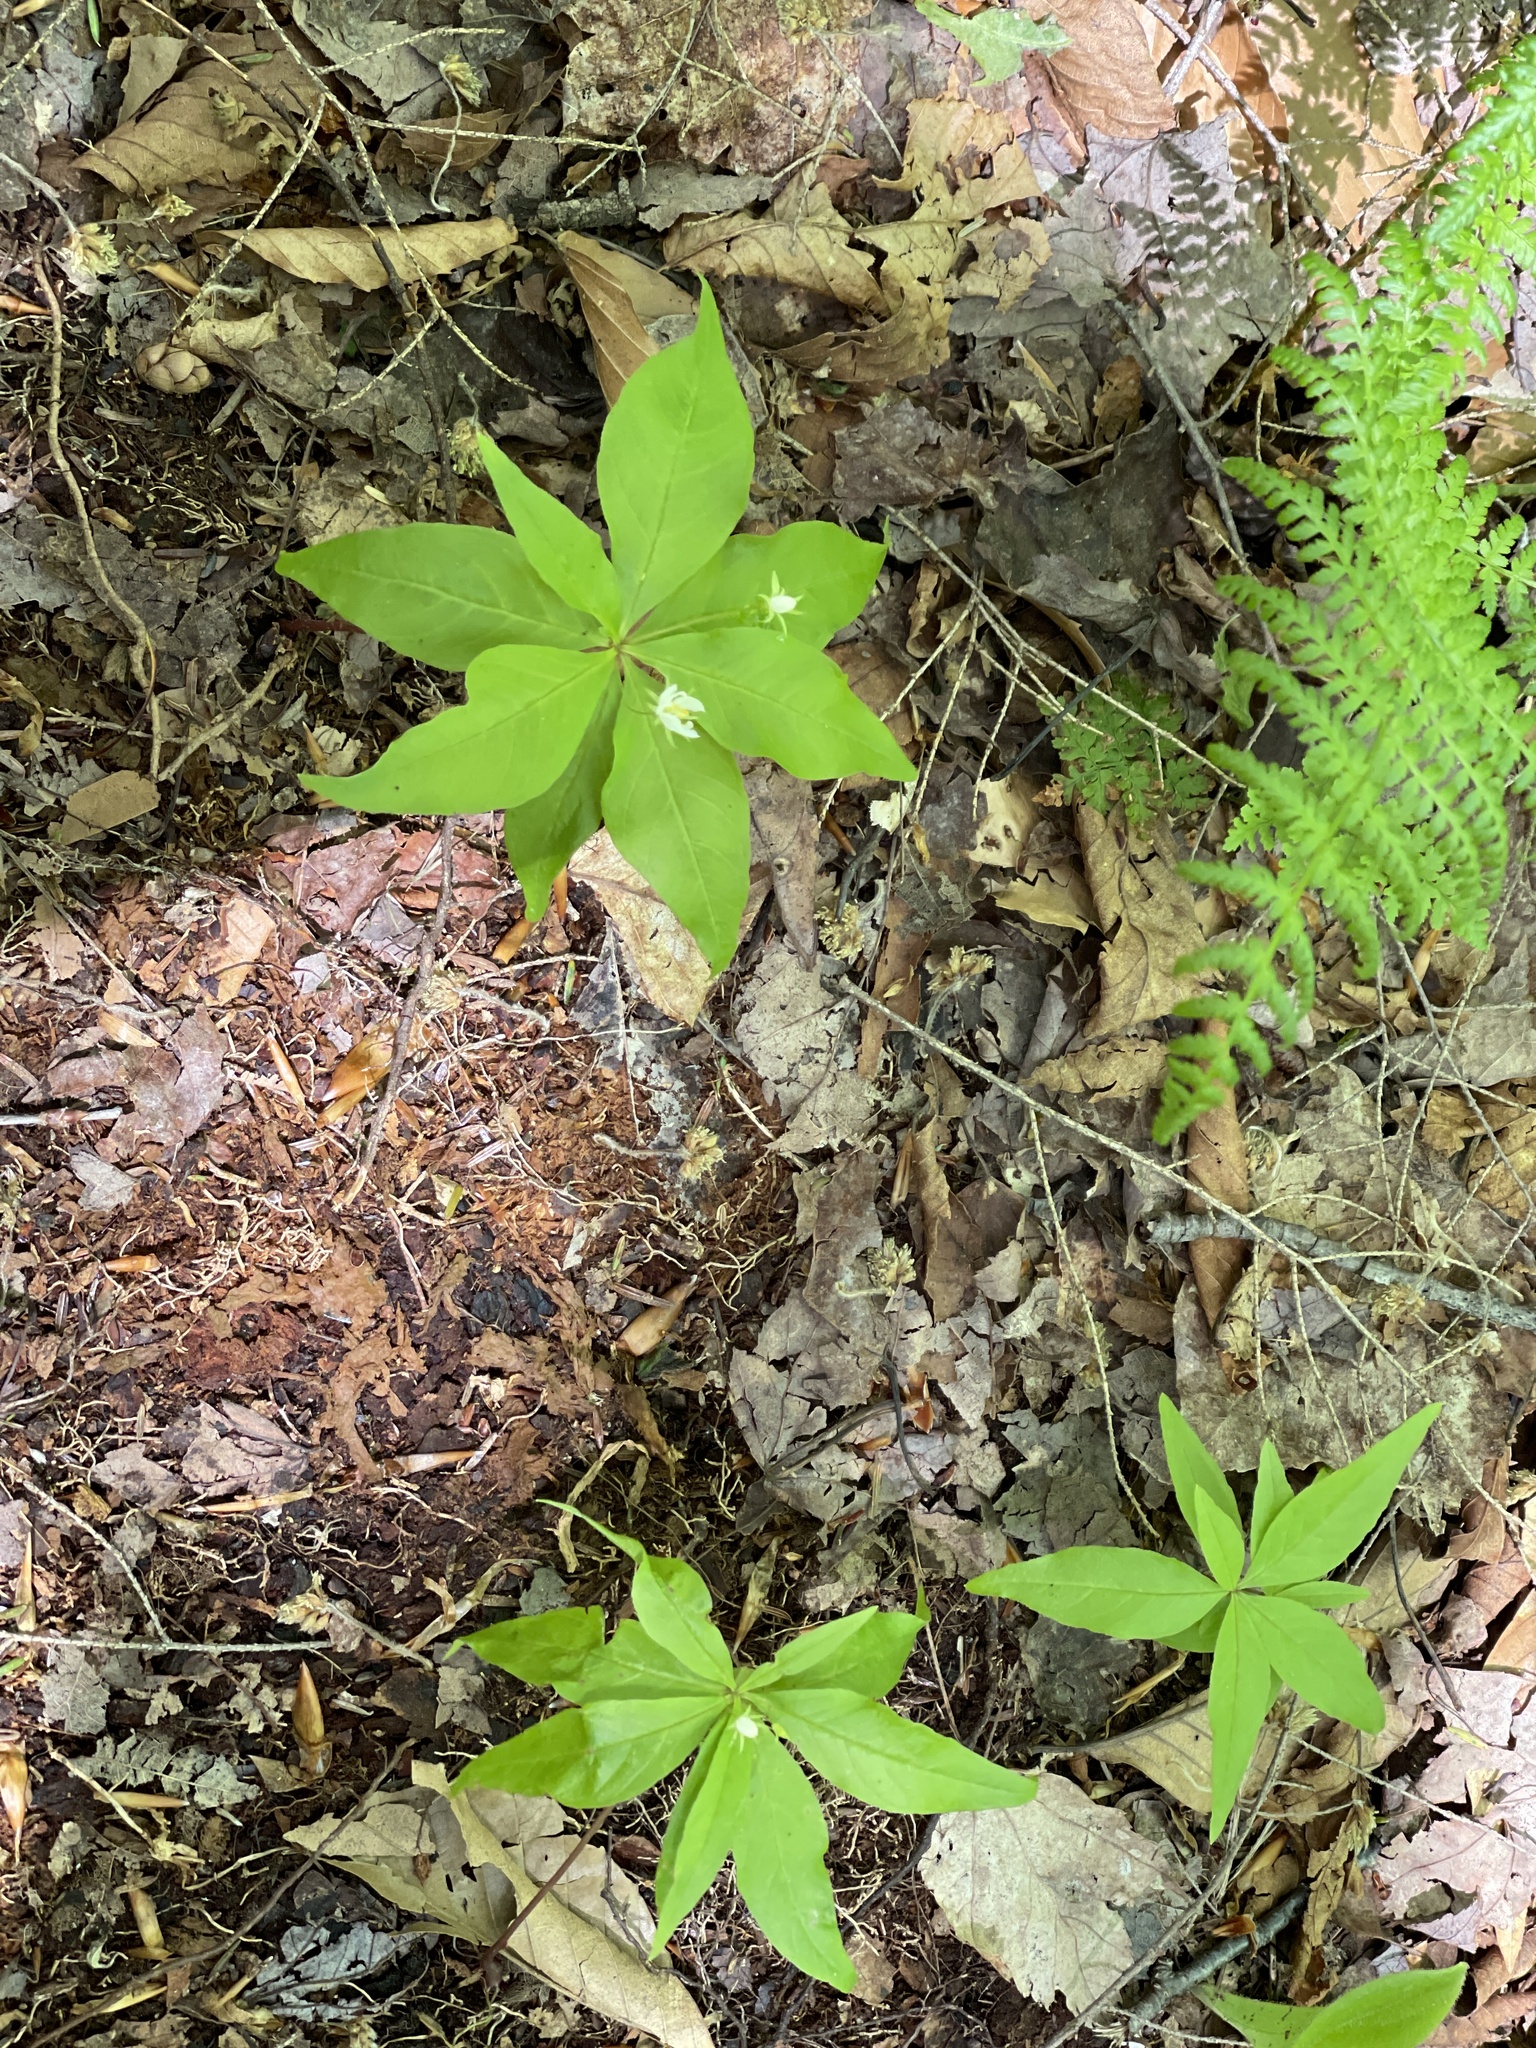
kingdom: Plantae
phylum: Tracheophyta
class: Magnoliopsida
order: Ericales
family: Primulaceae
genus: Lysimachia
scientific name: Lysimachia borealis
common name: American starflower
